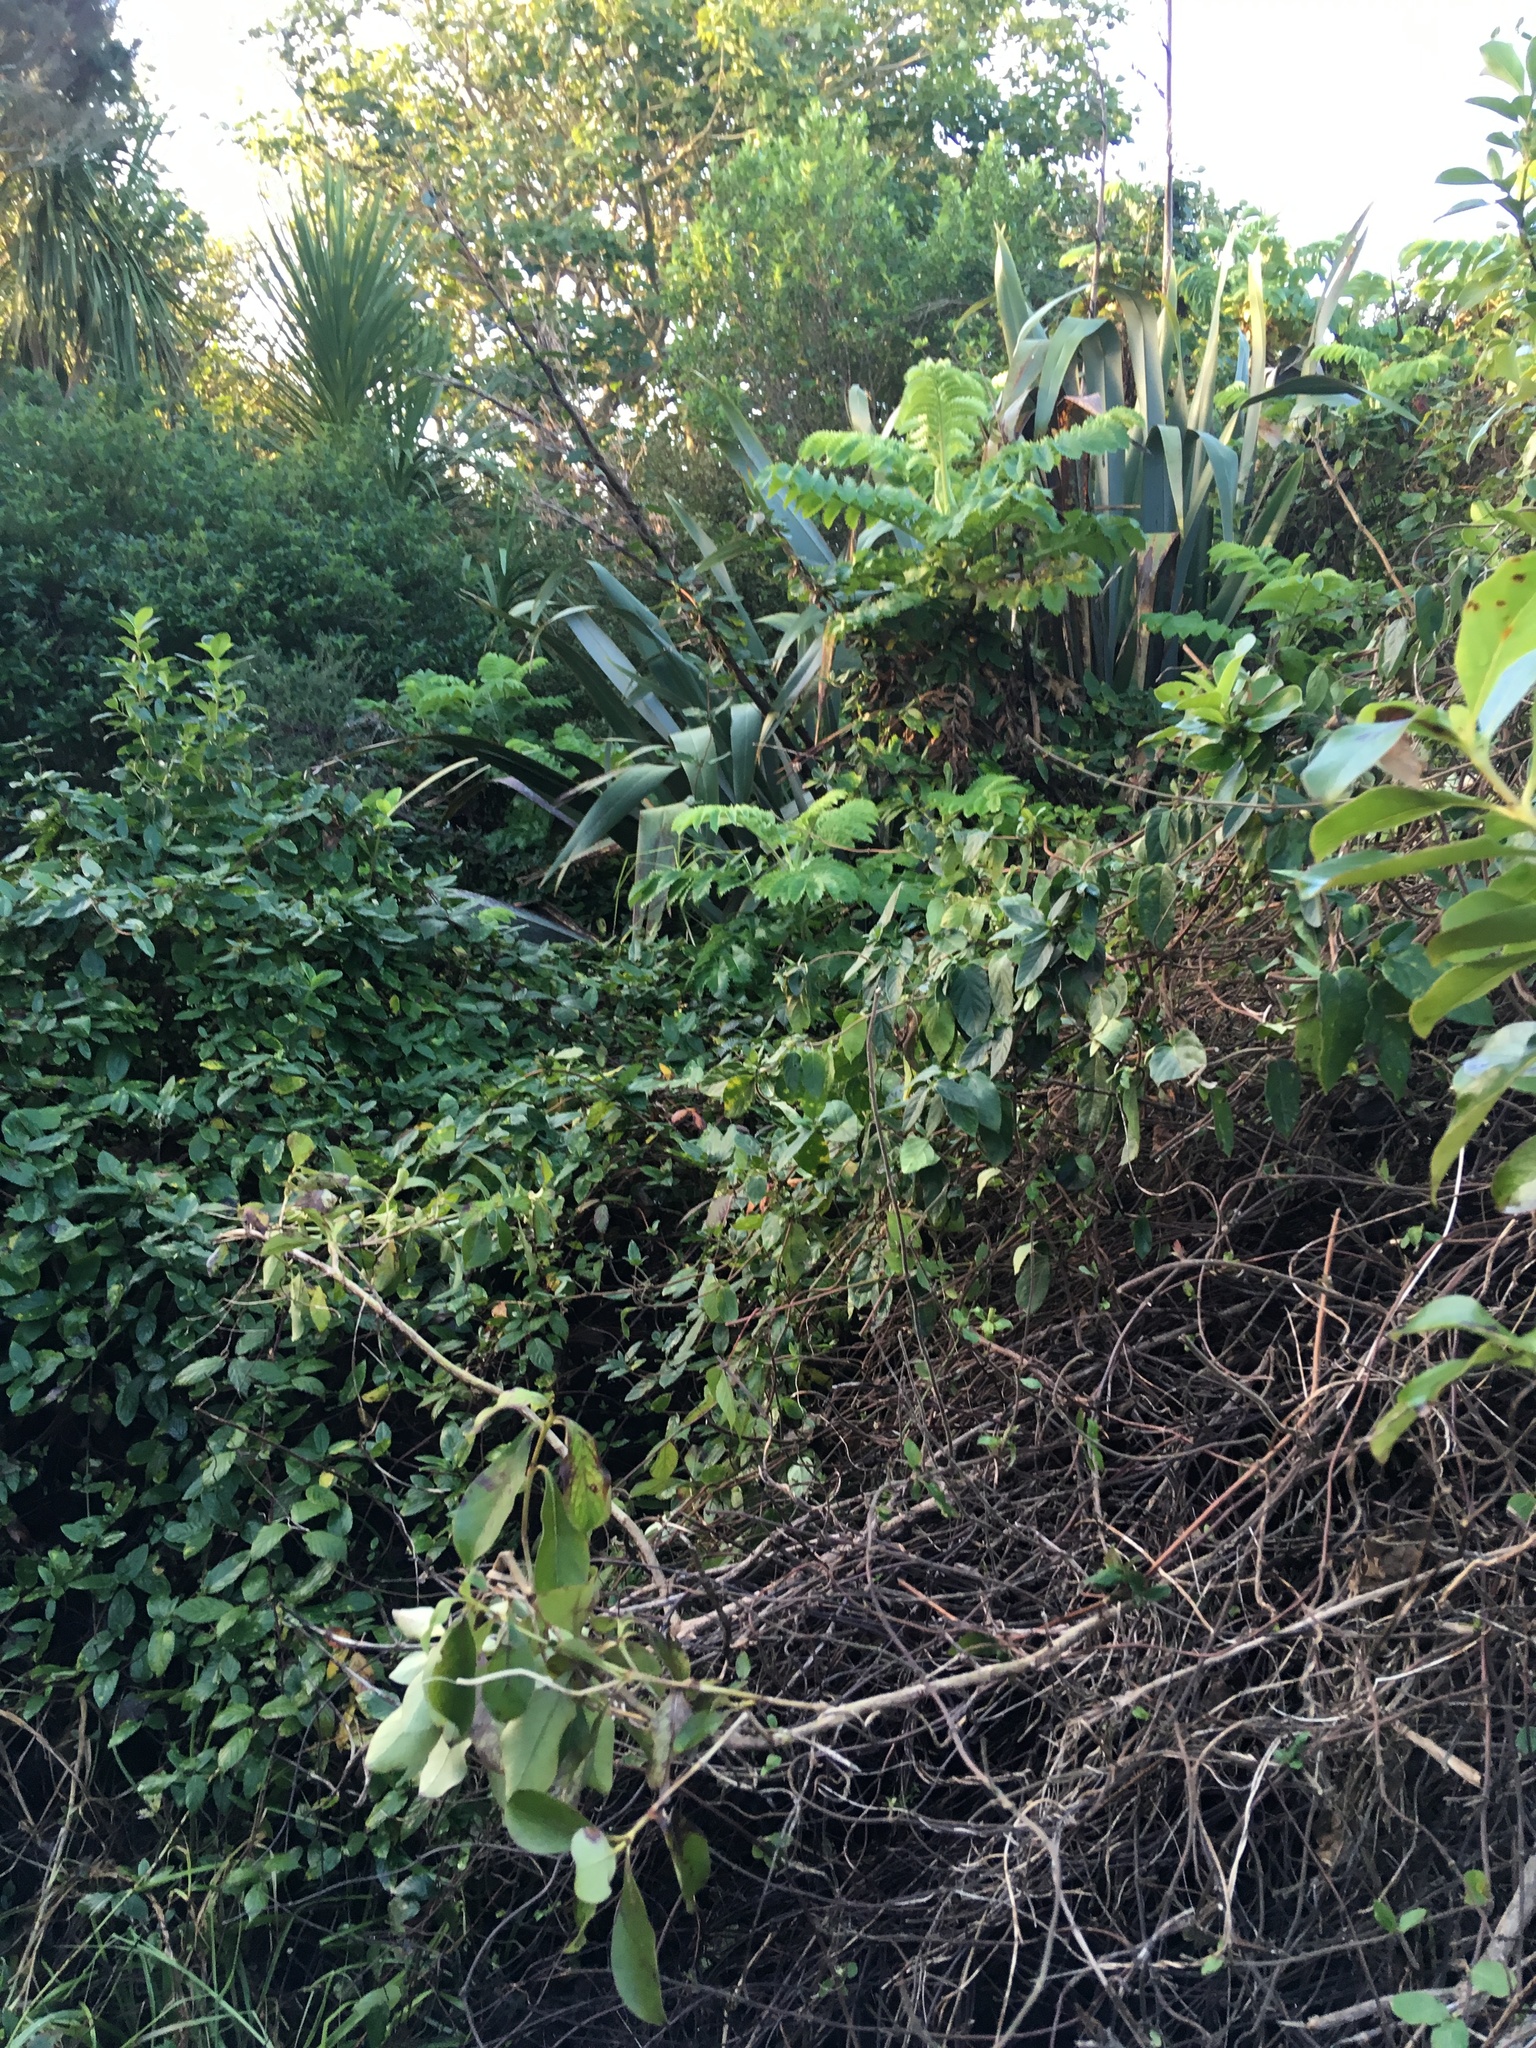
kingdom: Plantae
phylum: Tracheophyta
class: Magnoliopsida
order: Gentianales
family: Rubiaceae
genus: Coprosma
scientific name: Coprosma robusta
